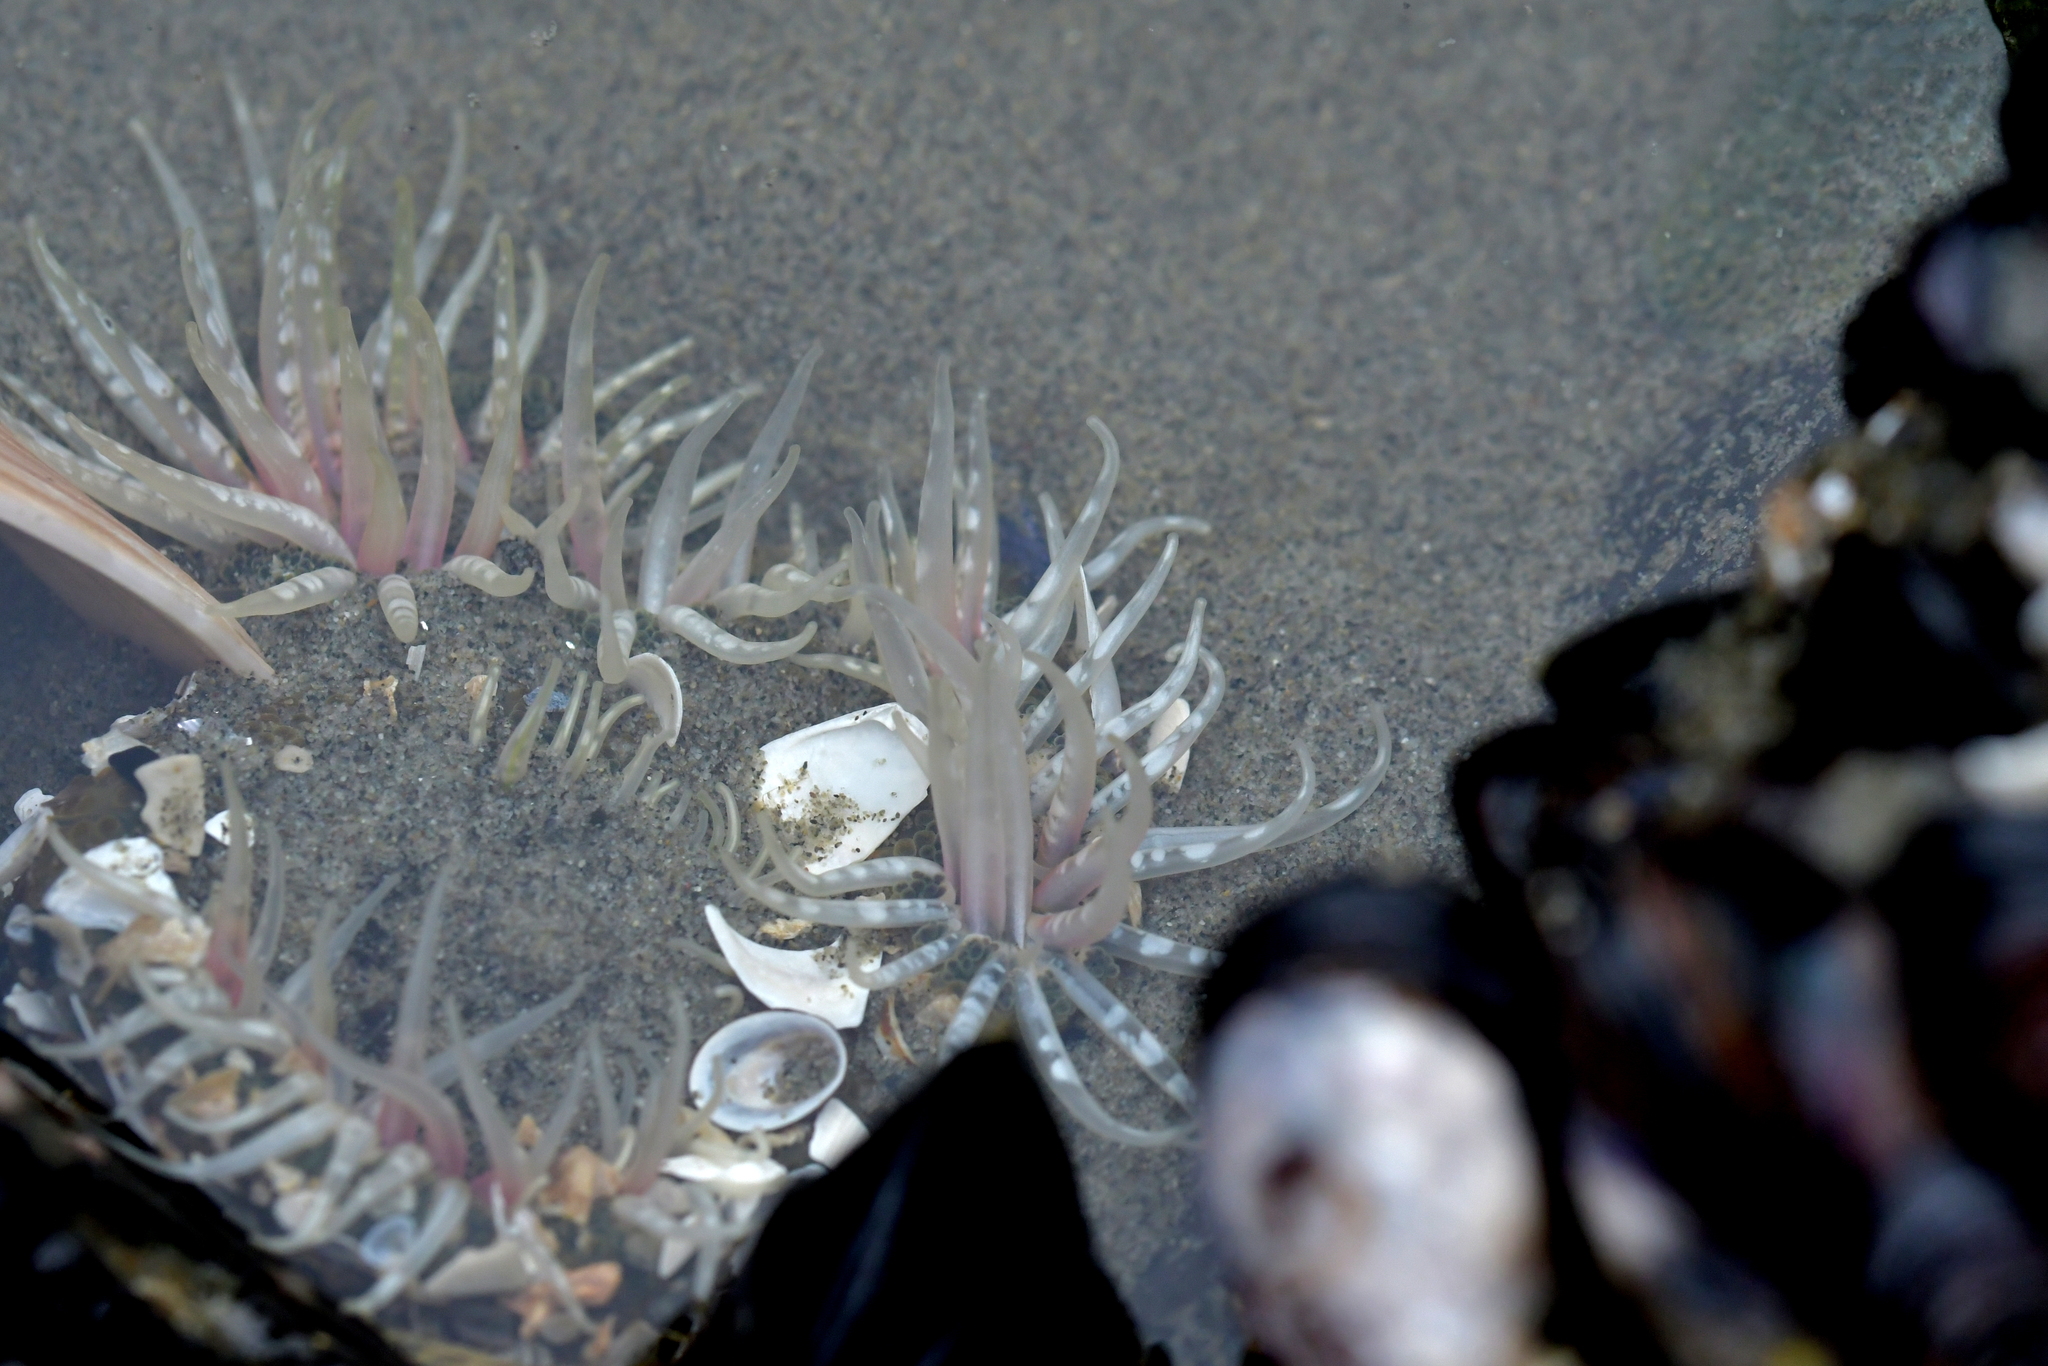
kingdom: Animalia
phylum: Cnidaria
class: Anthozoa
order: Actiniaria
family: Actiniidae
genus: Oulactis
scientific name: Oulactis muscosa
